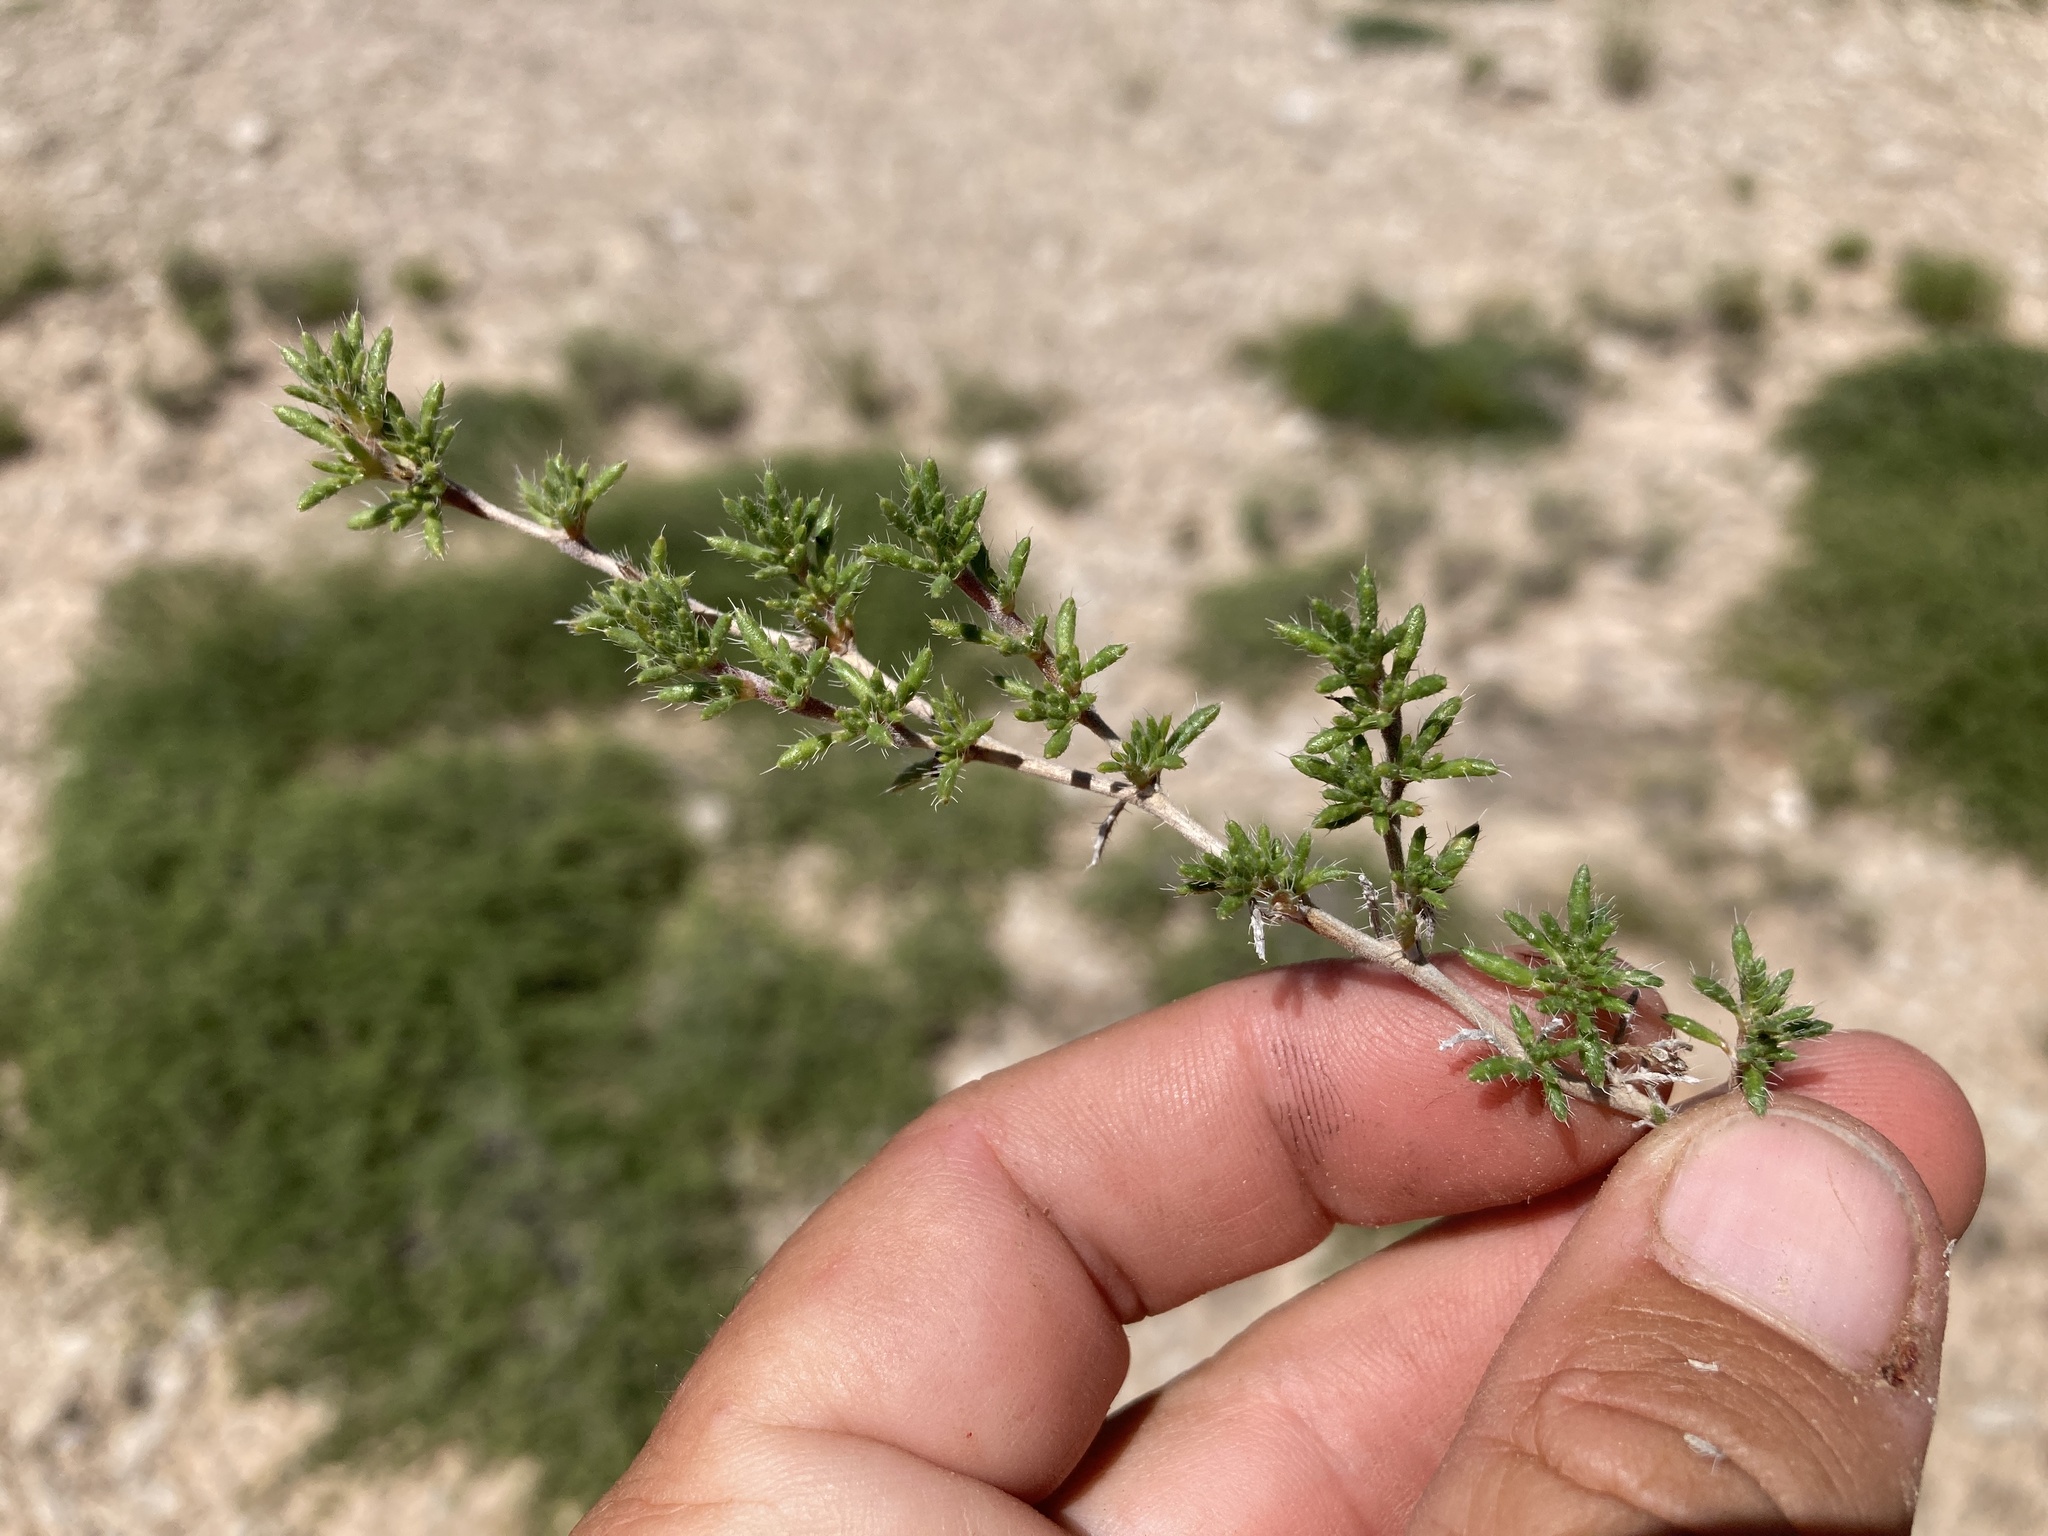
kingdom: Plantae
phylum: Tracheophyta
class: Magnoliopsida
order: Boraginales
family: Ehretiaceae
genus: Tiquilia
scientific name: Tiquilia hispidissima
